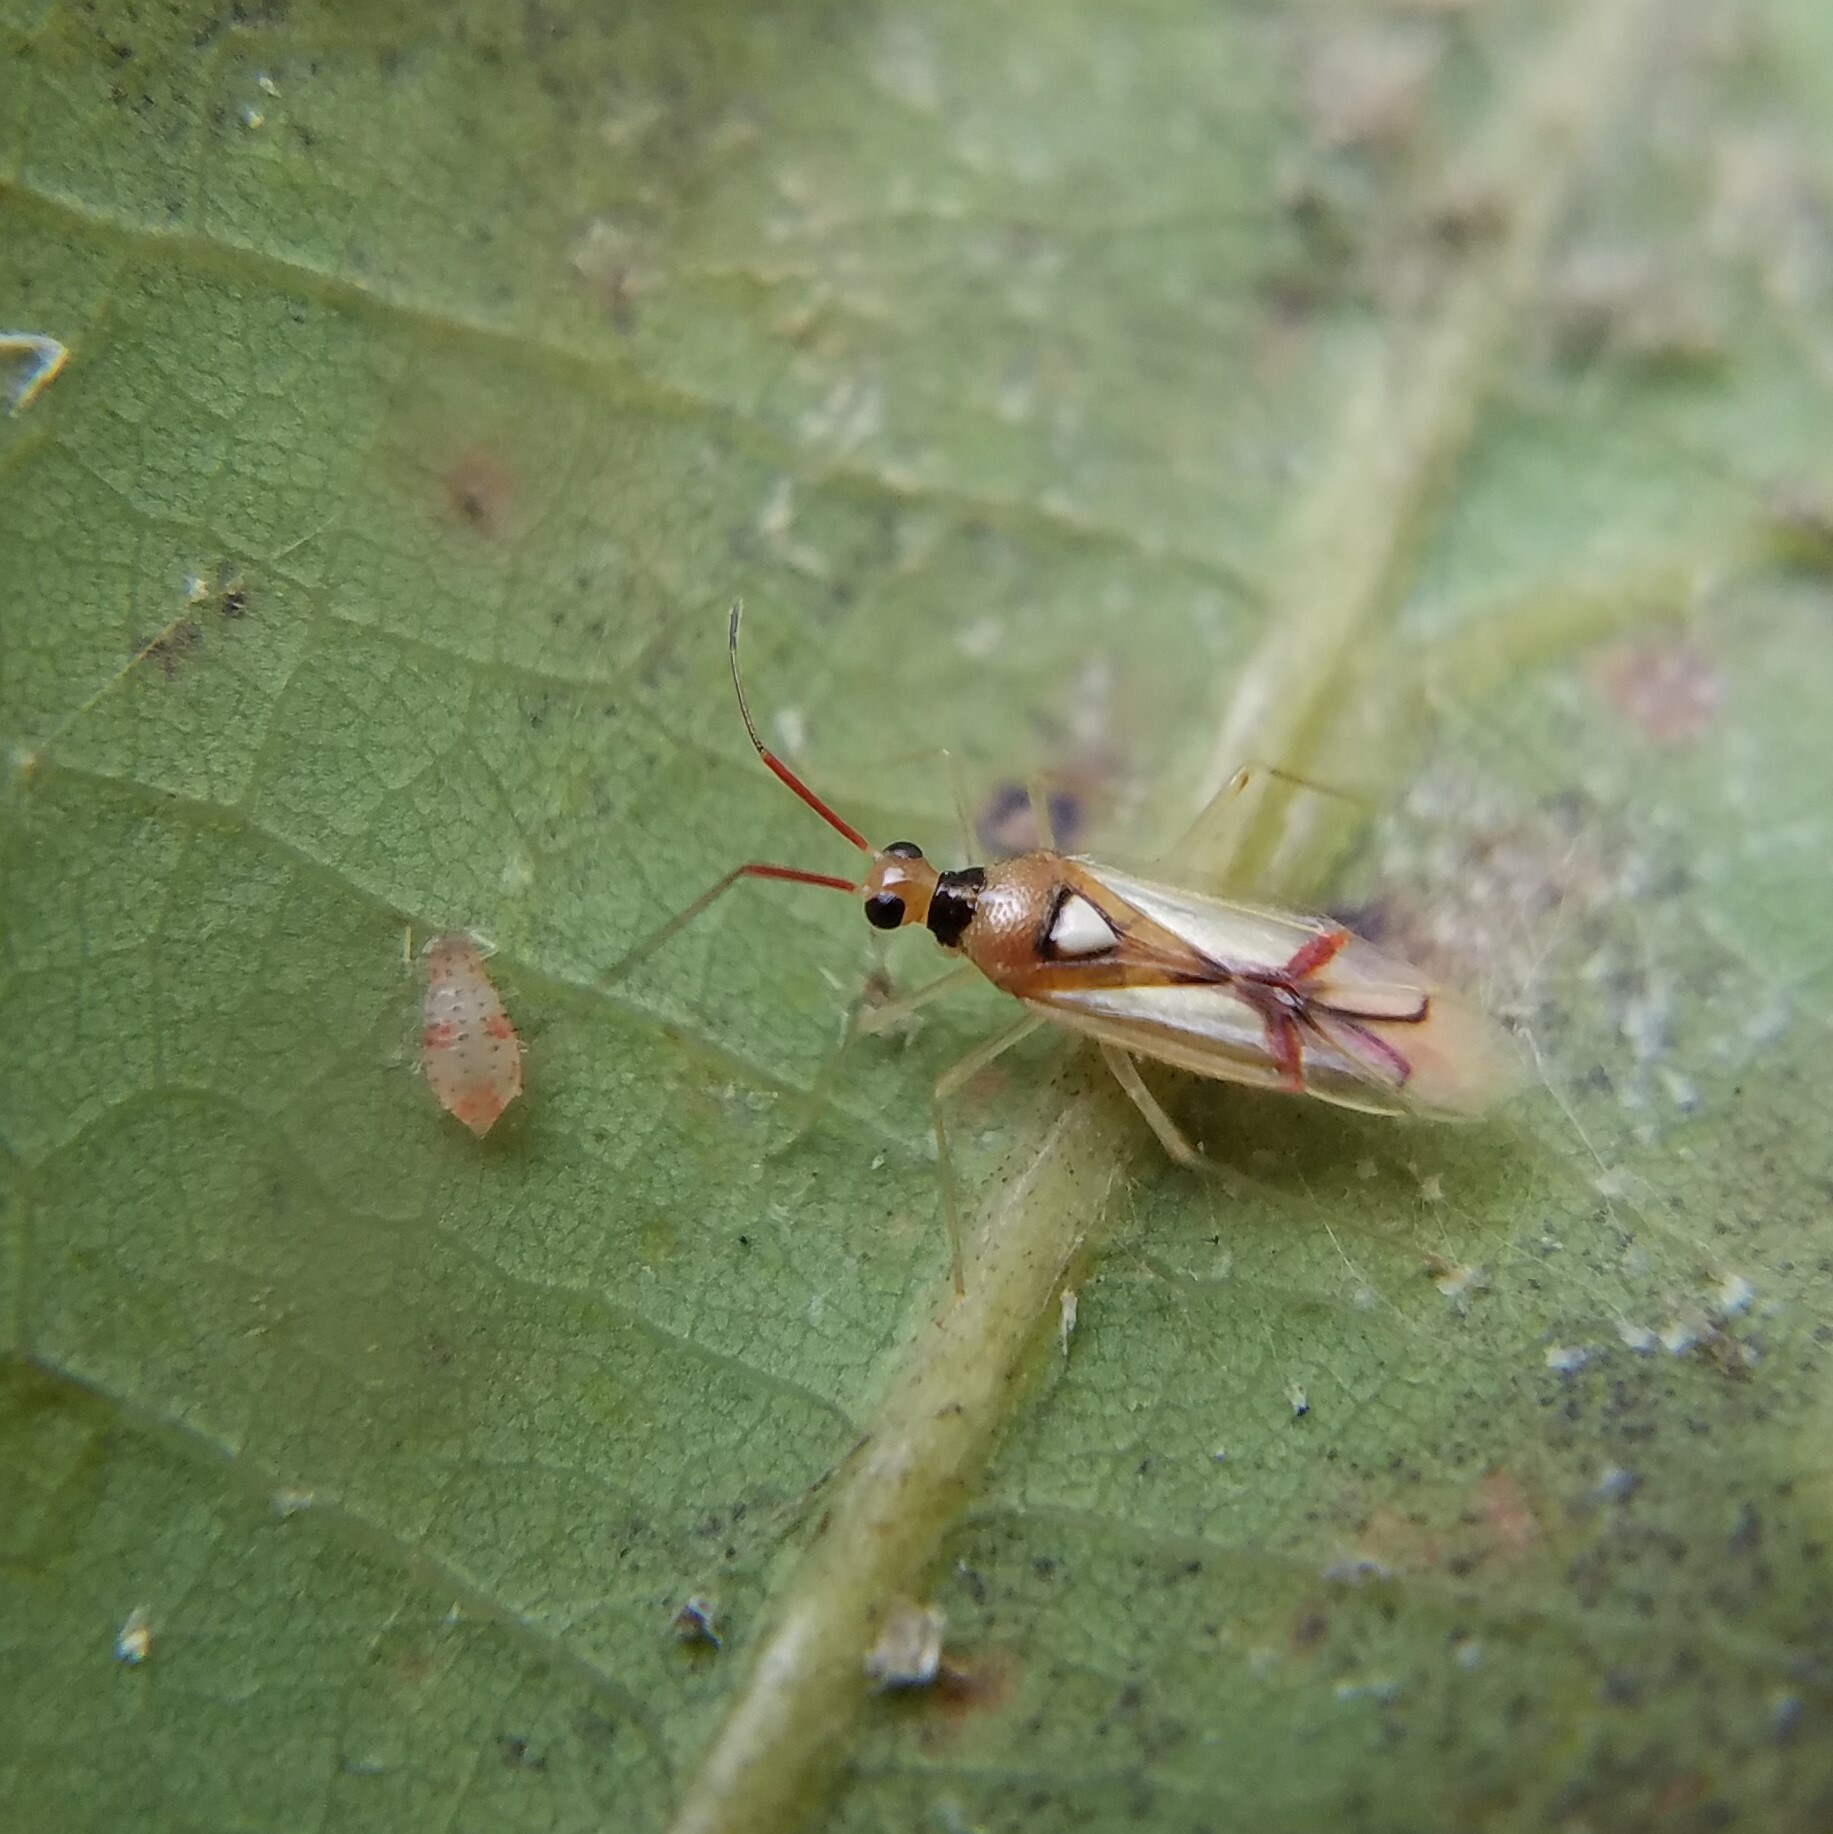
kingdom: Animalia
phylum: Arthropoda
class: Insecta
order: Hemiptera
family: Miridae
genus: Hyaliodes
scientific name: Hyaliodes harti
